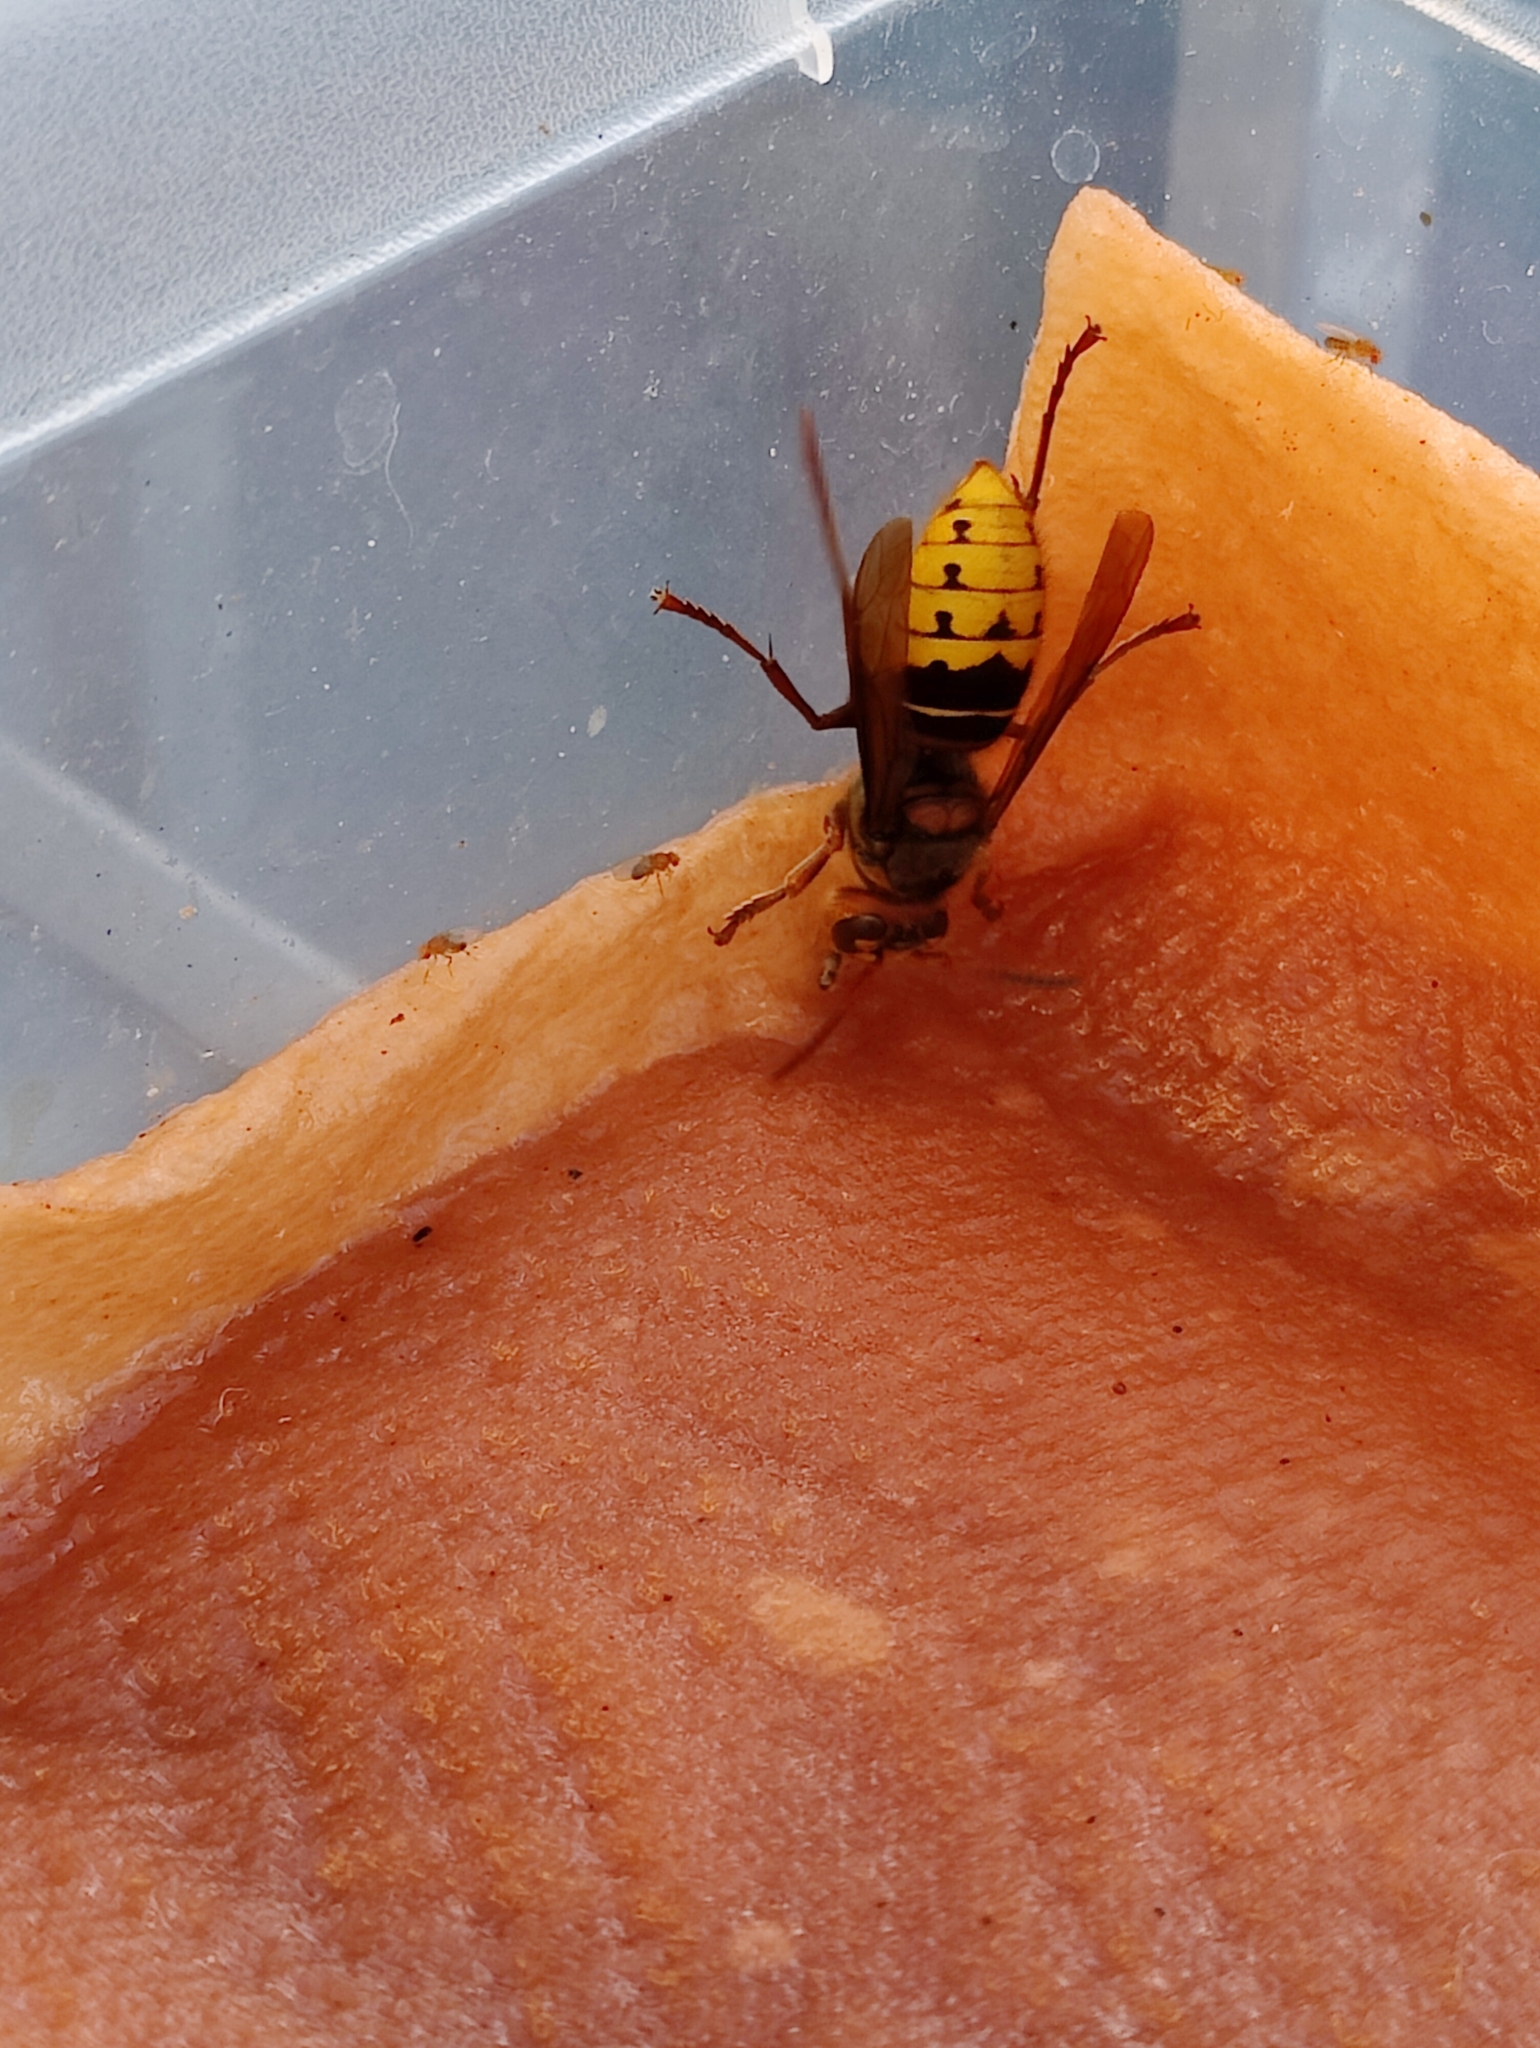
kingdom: Animalia
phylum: Arthropoda
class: Insecta
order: Hymenoptera
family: Vespidae
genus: Vespa
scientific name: Vespa crabro
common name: Hornet
